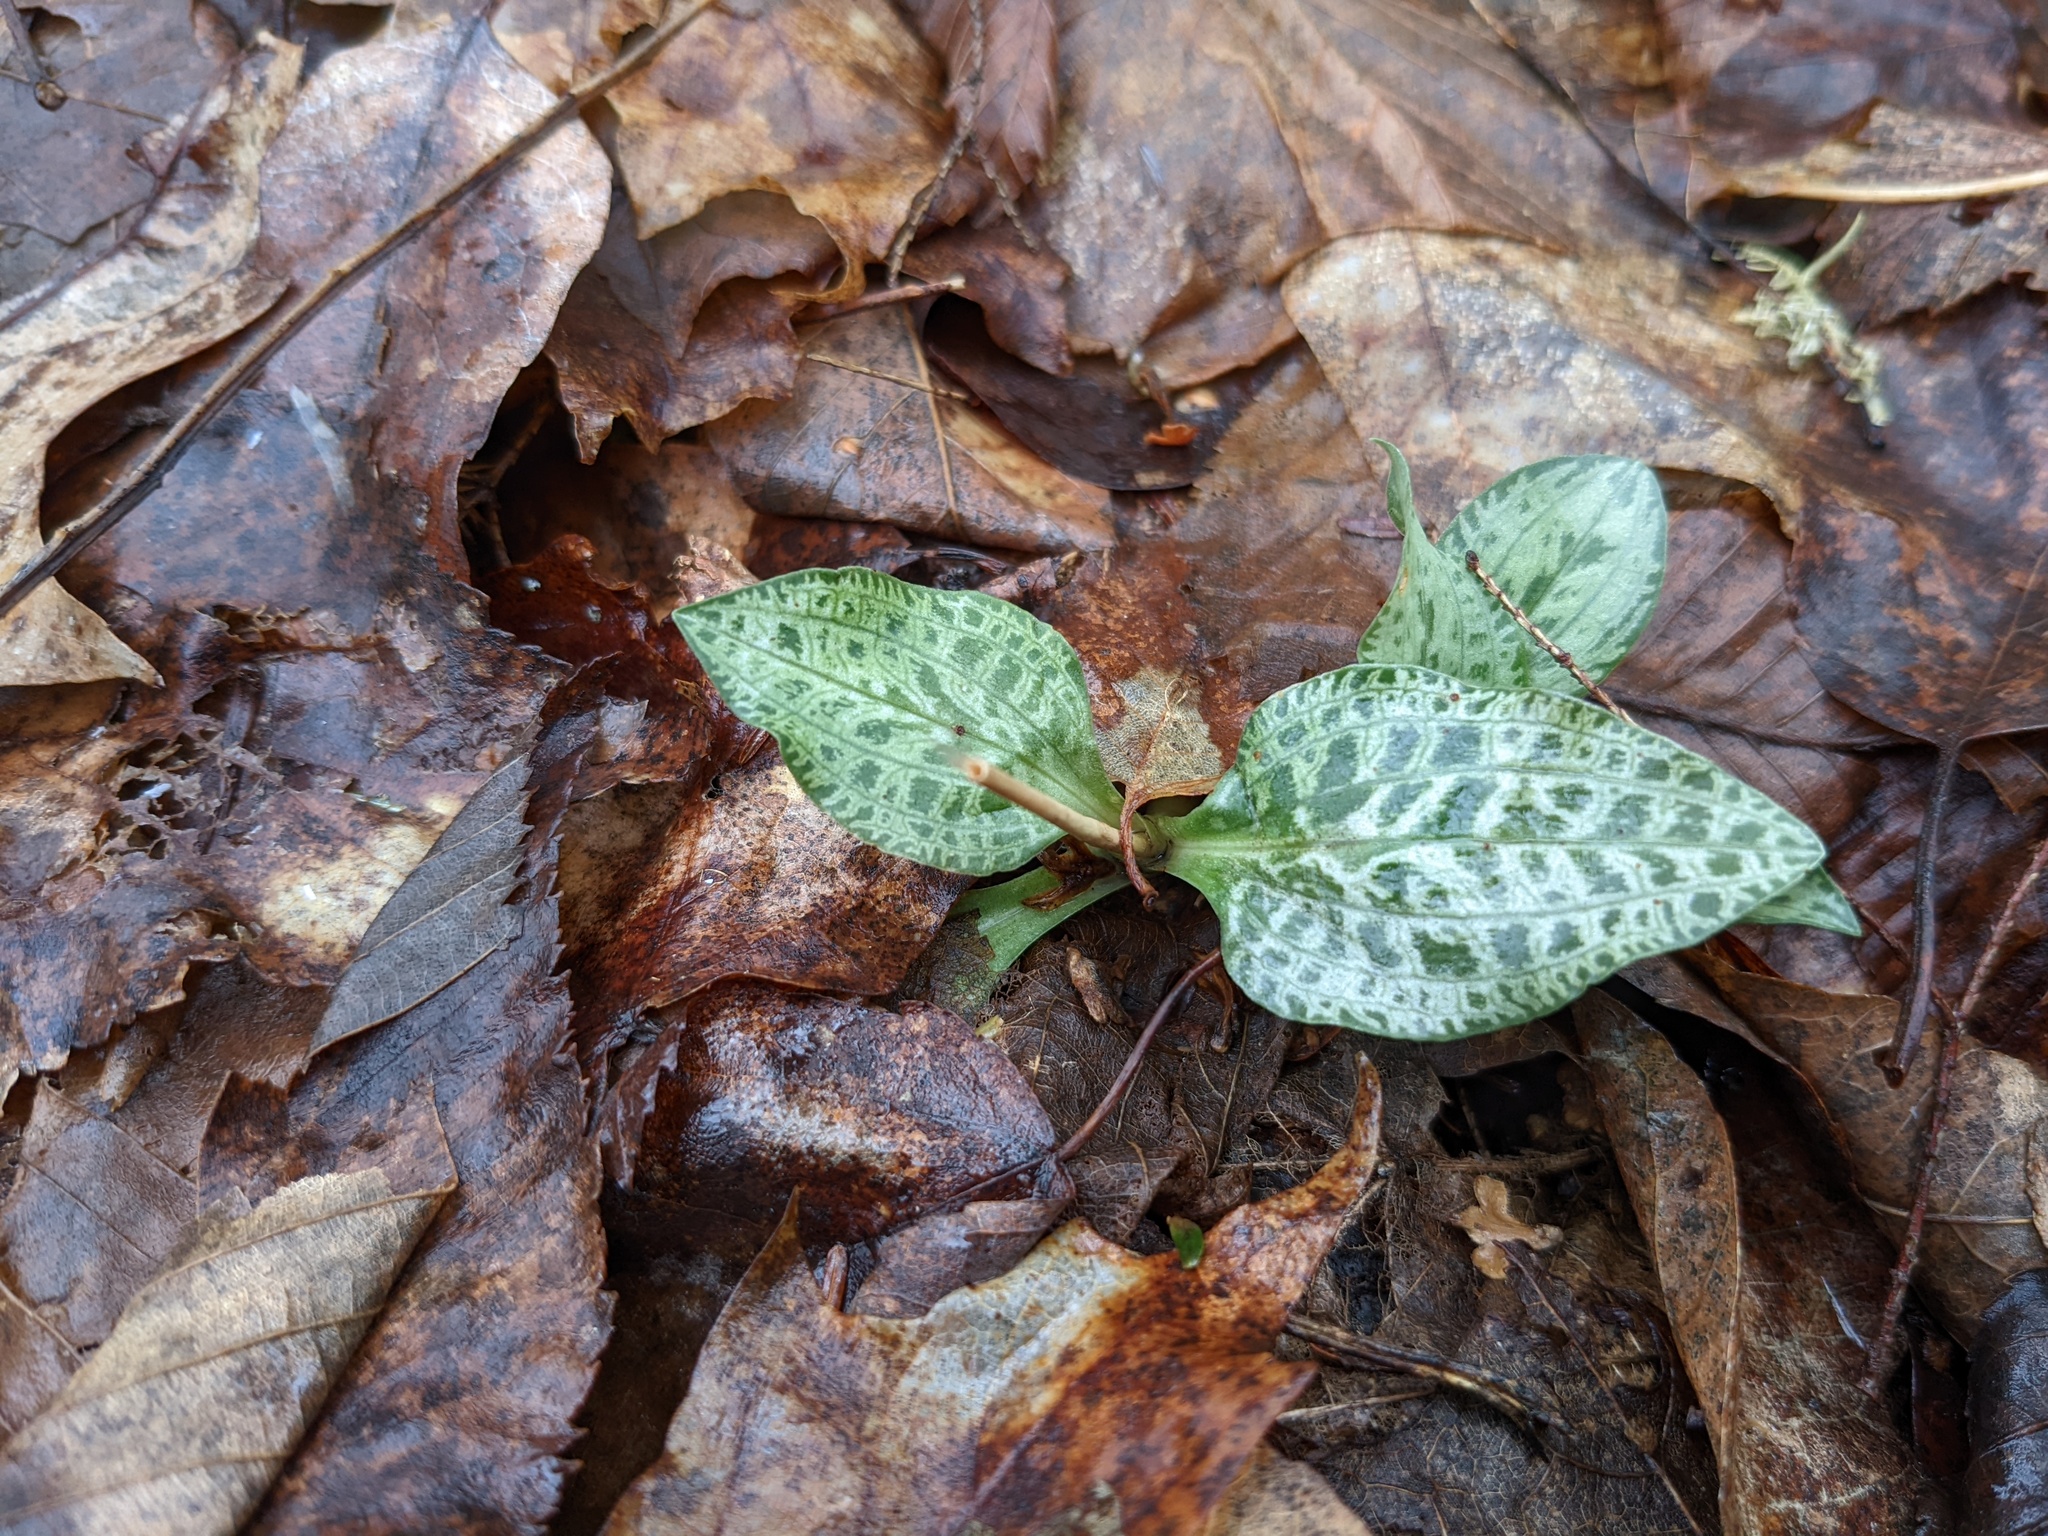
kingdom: Plantae
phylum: Tracheophyta
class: Liliopsida
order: Asparagales
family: Orchidaceae
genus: Goodyera
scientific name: Goodyera tesselata
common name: Checkered rattlesnake-plantain
